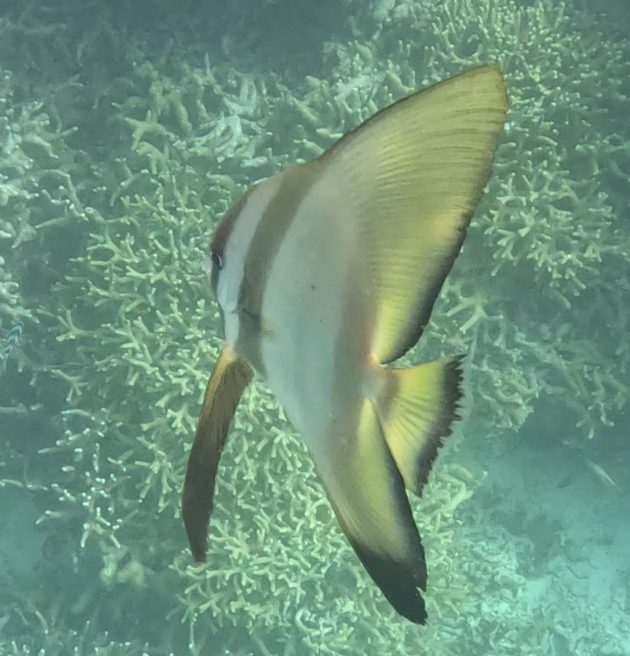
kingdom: Animalia
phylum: Chordata
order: Perciformes
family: Ephippidae
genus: Platax
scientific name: Platax boersii
